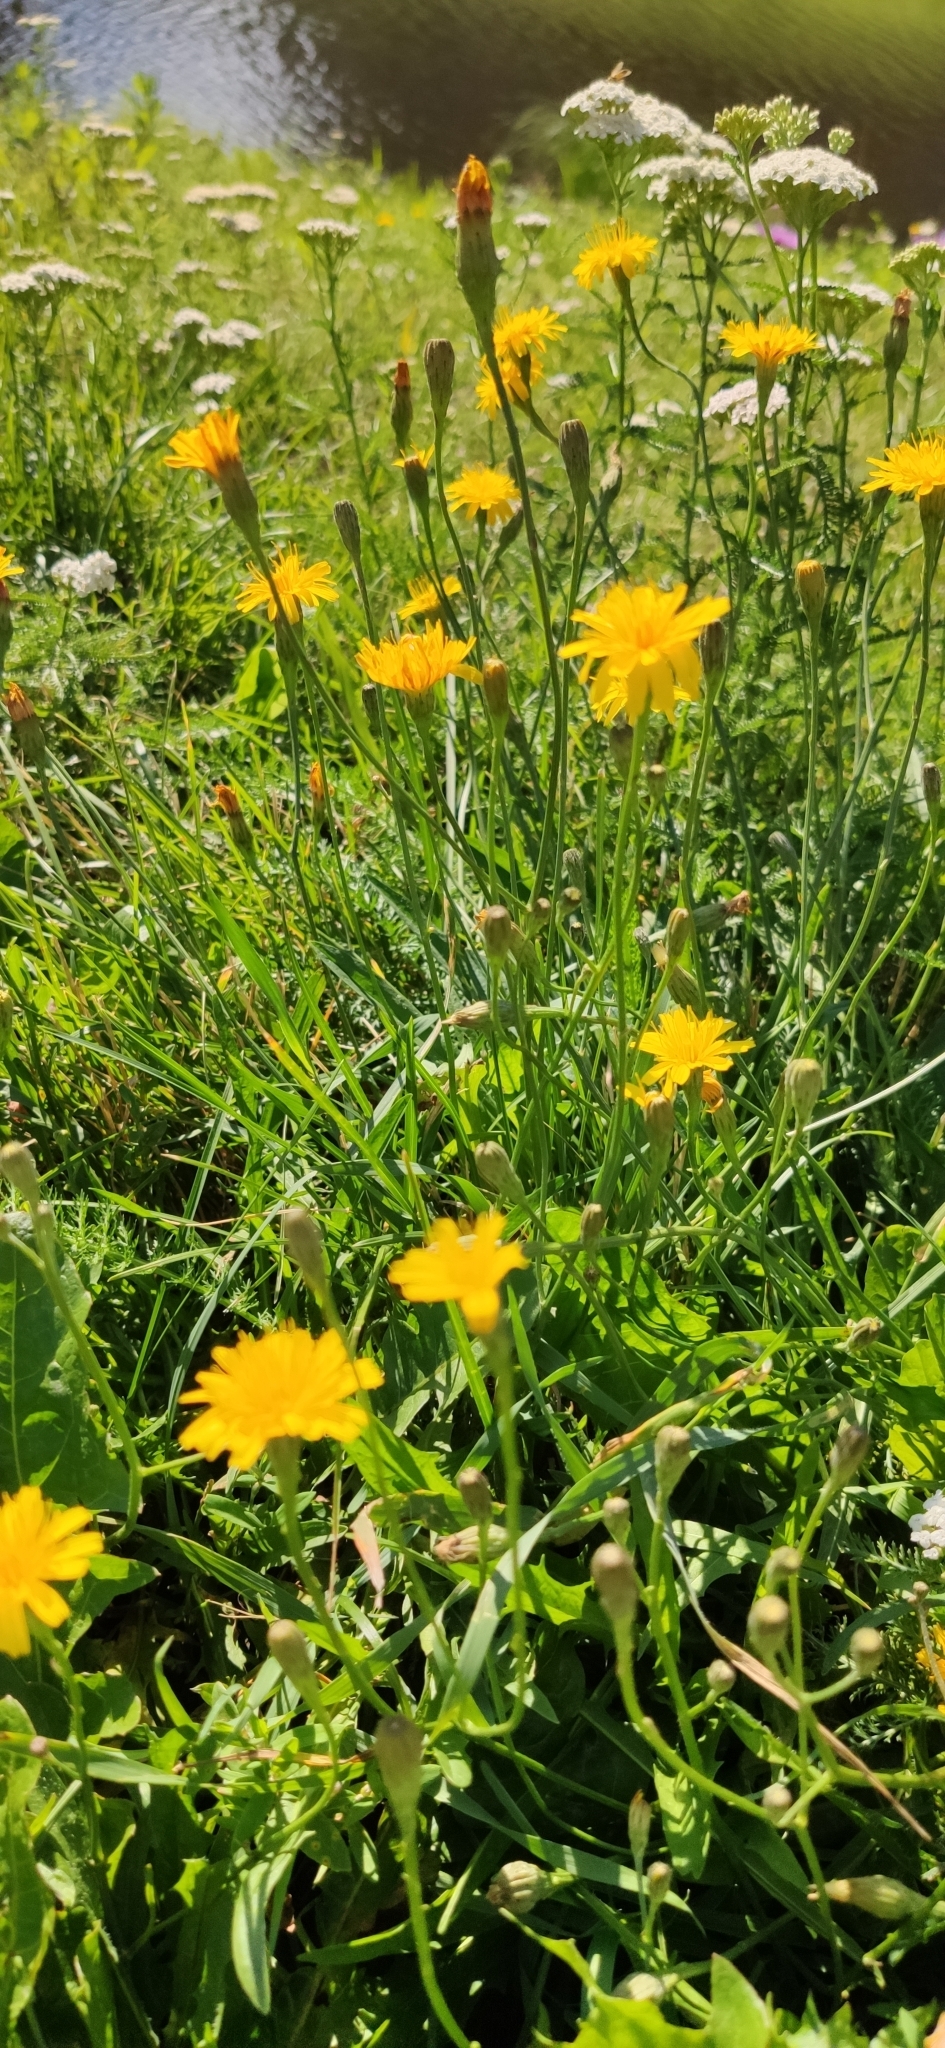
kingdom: Plantae
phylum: Tracheophyta
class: Magnoliopsida
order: Asterales
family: Asteraceae
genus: Scorzoneroides
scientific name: Scorzoneroides autumnalis
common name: Autumn hawkbit
